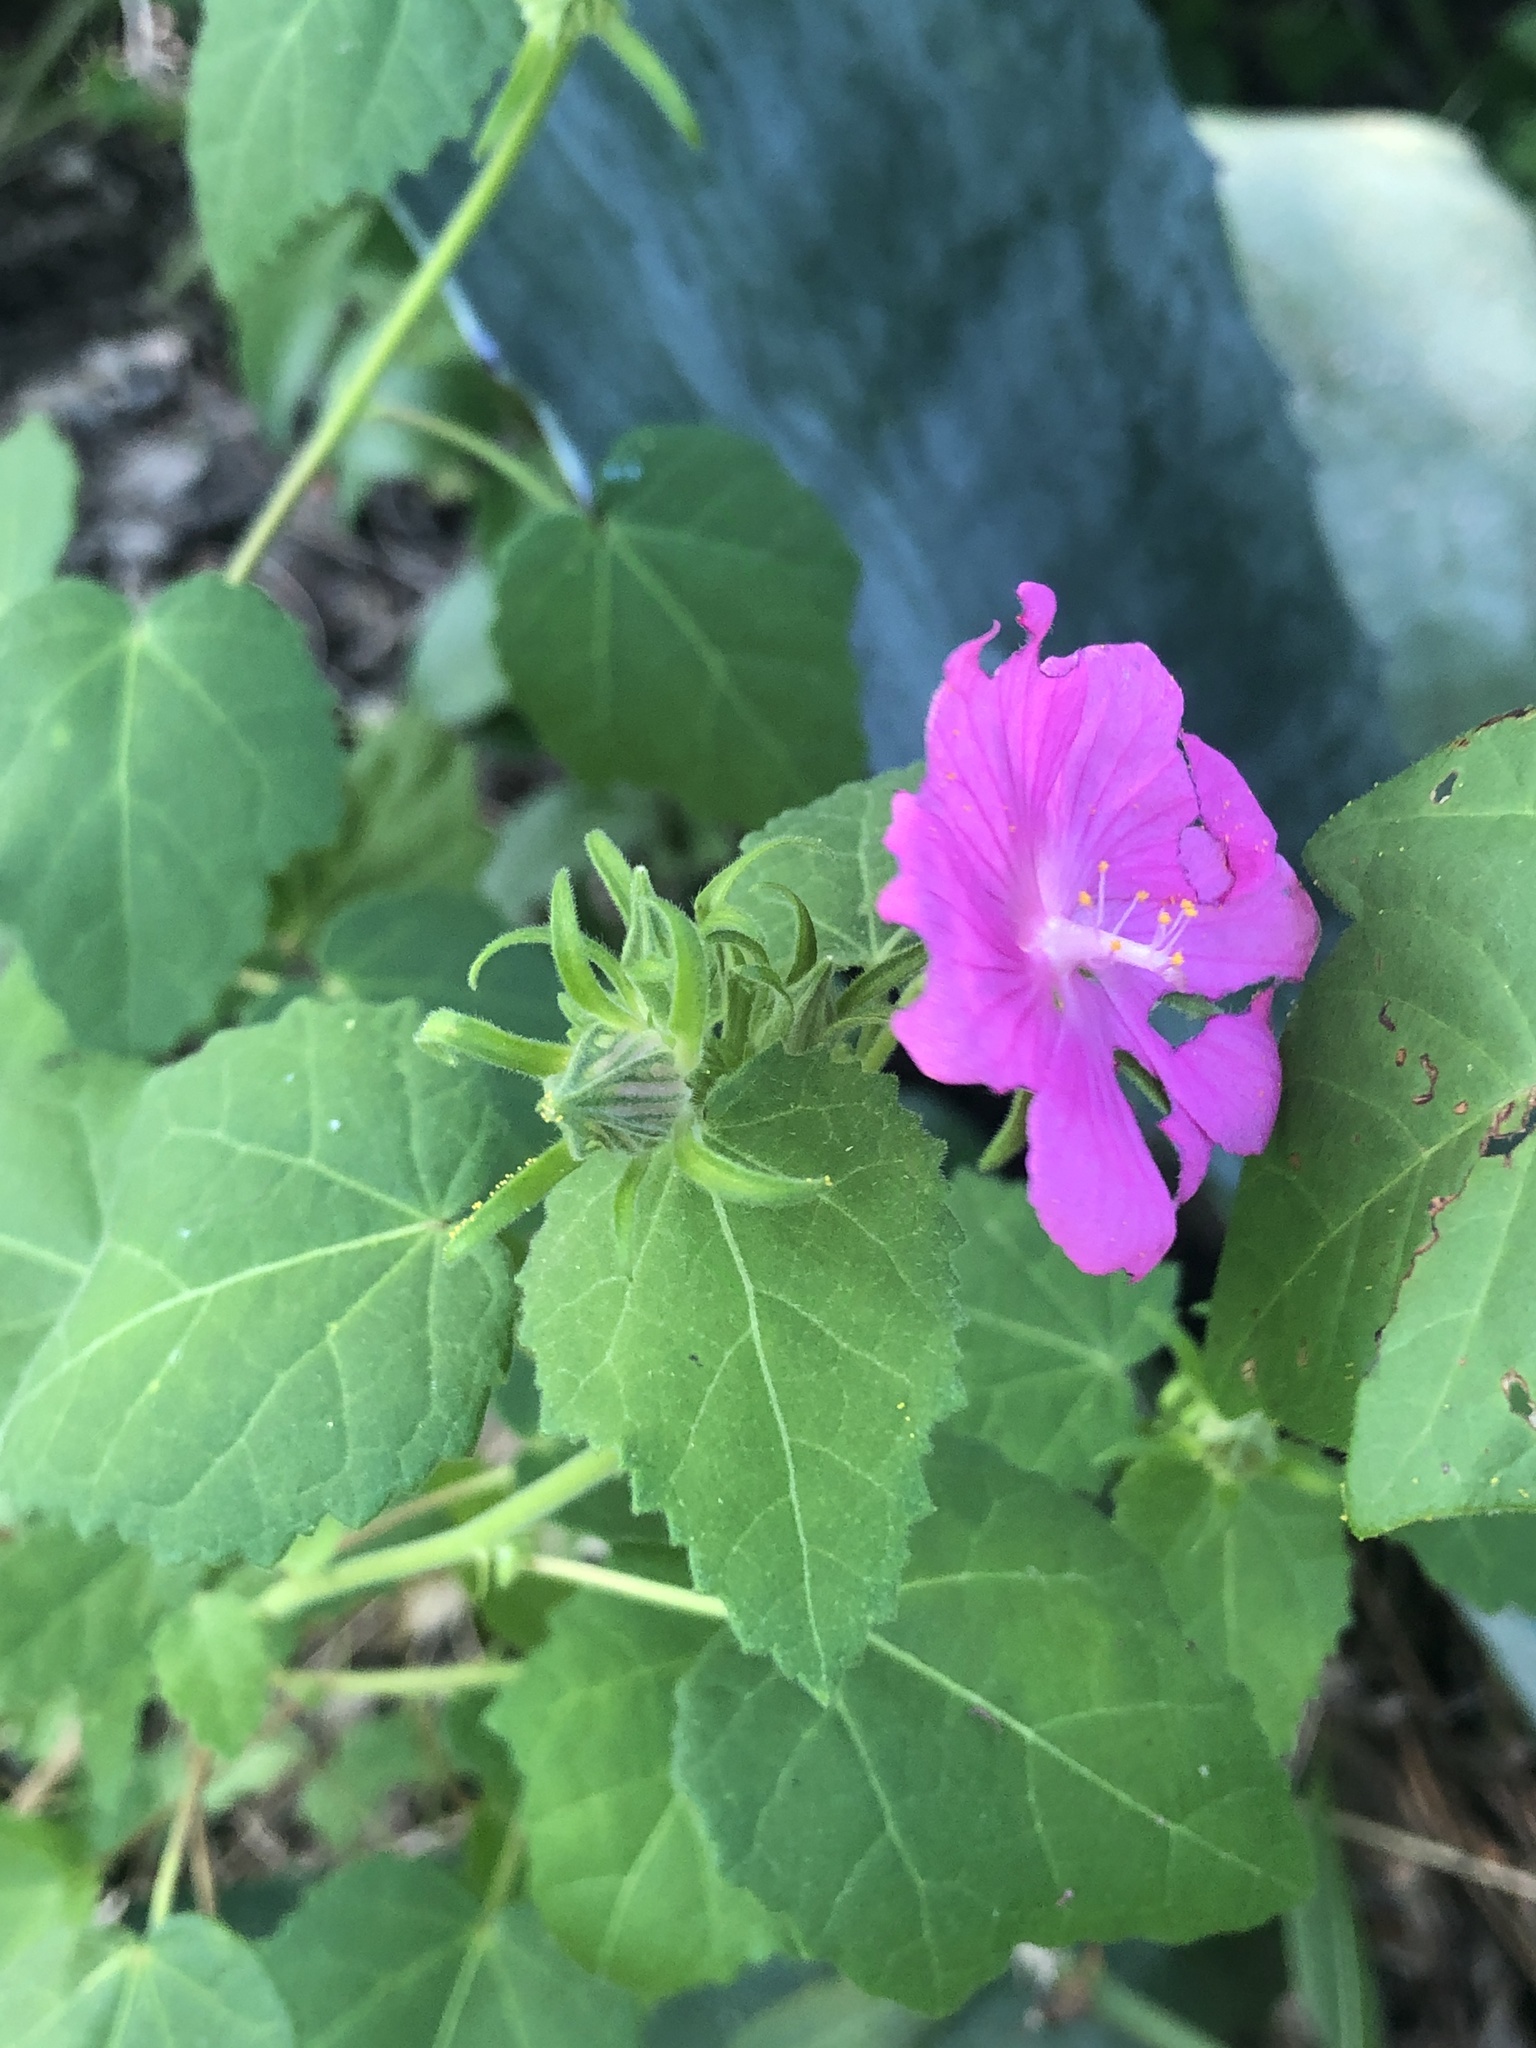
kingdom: Plantae
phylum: Tracheophyta
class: Magnoliopsida
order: Malvales
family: Malvaceae
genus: Pavonia
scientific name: Pavonia lasiopetala
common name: Texas swamp-mallow
